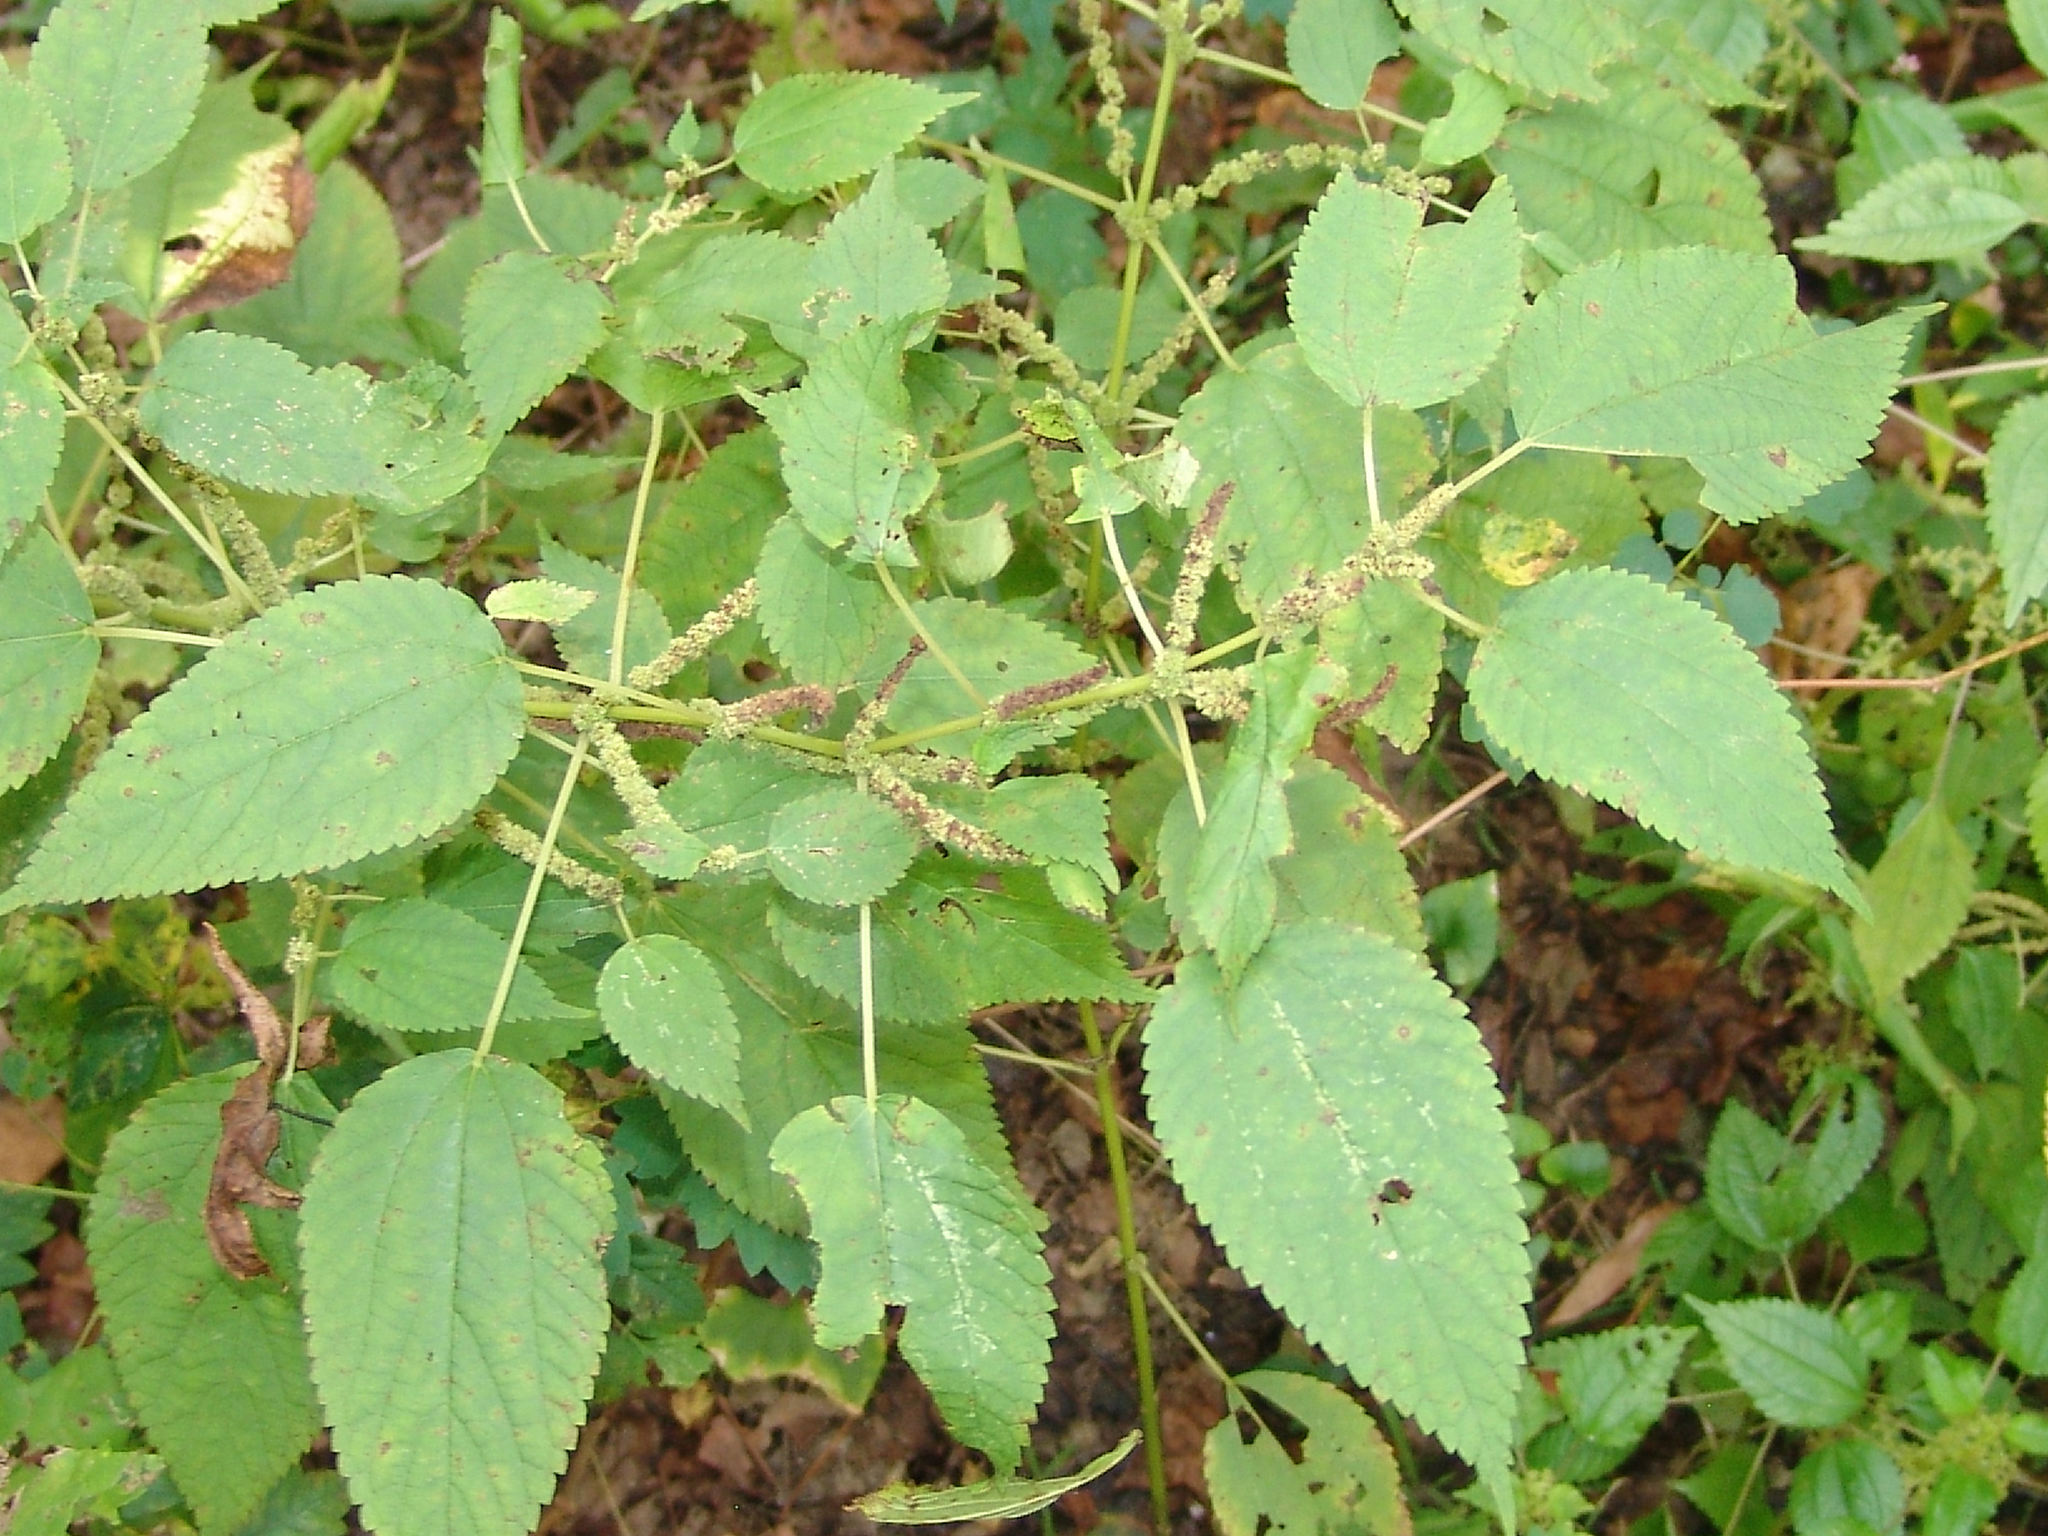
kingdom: Plantae
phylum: Tracheophyta
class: Magnoliopsida
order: Rosales
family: Urticaceae
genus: Boehmeria
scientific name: Boehmeria cylindrica
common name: Bog-hemp
